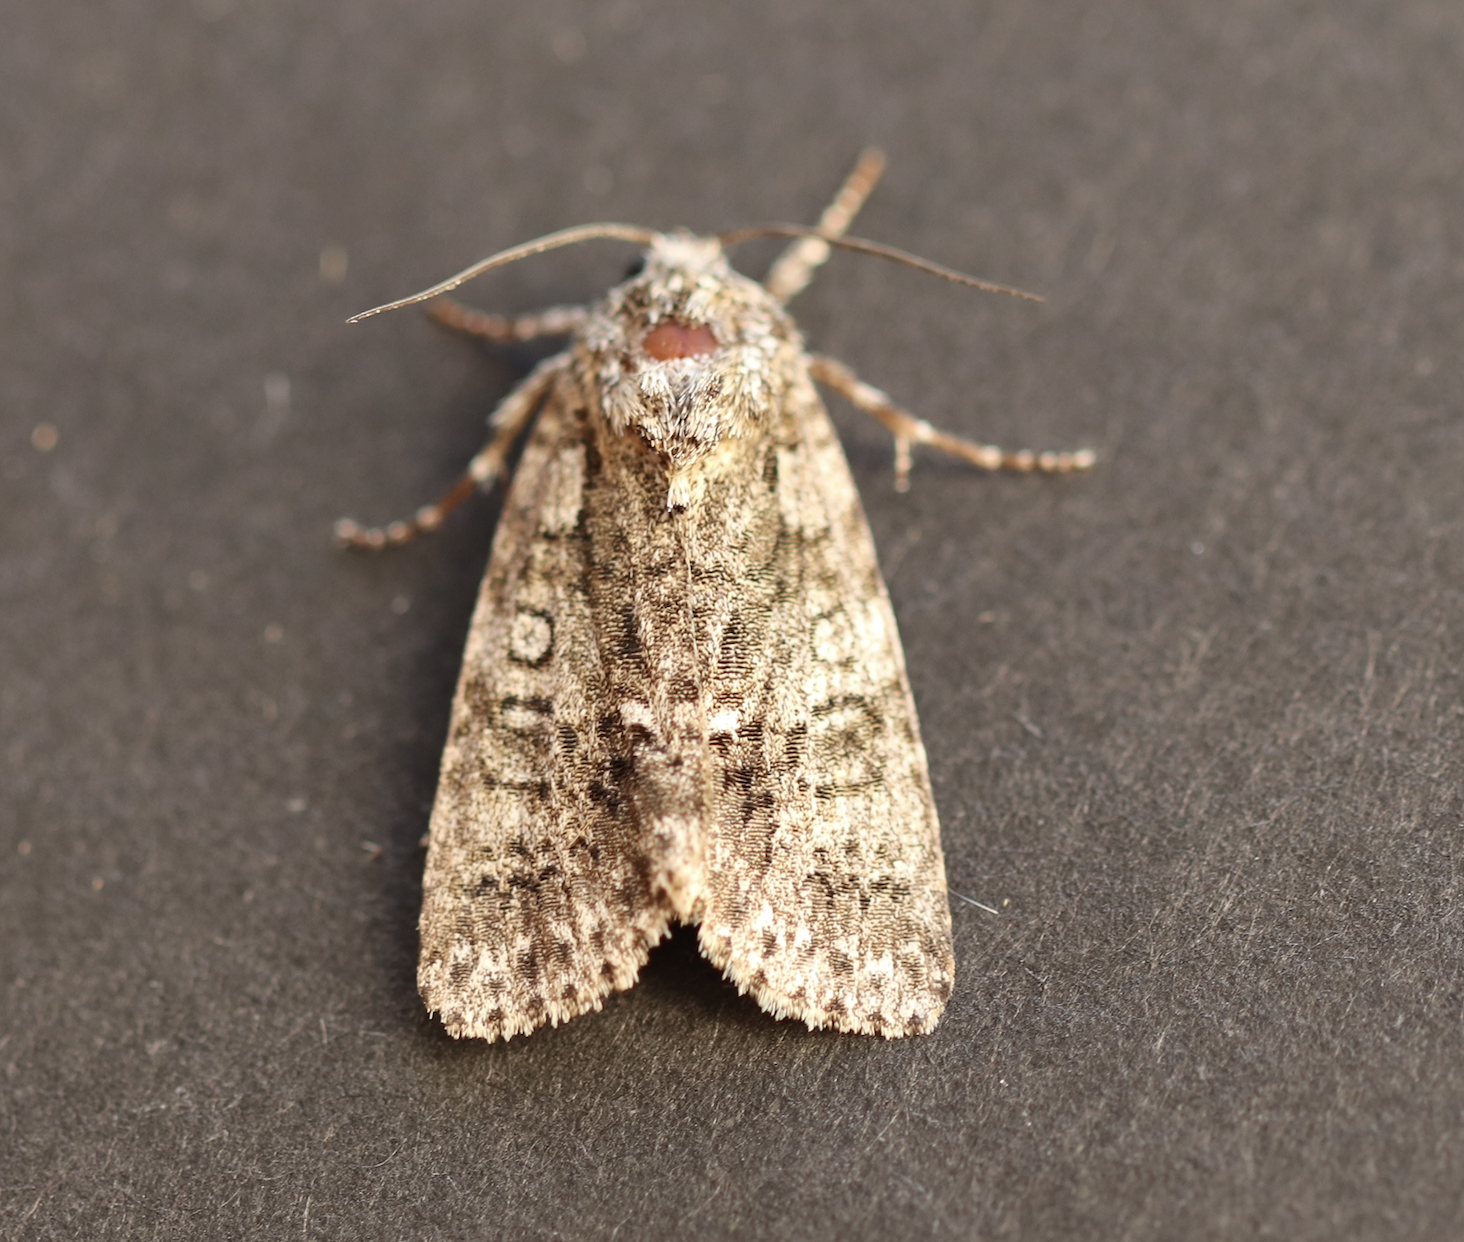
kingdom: Animalia
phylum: Arthropoda
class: Insecta
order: Lepidoptera
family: Noctuidae
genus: Acronicta
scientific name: Acronicta rumicis
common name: Knot grass
